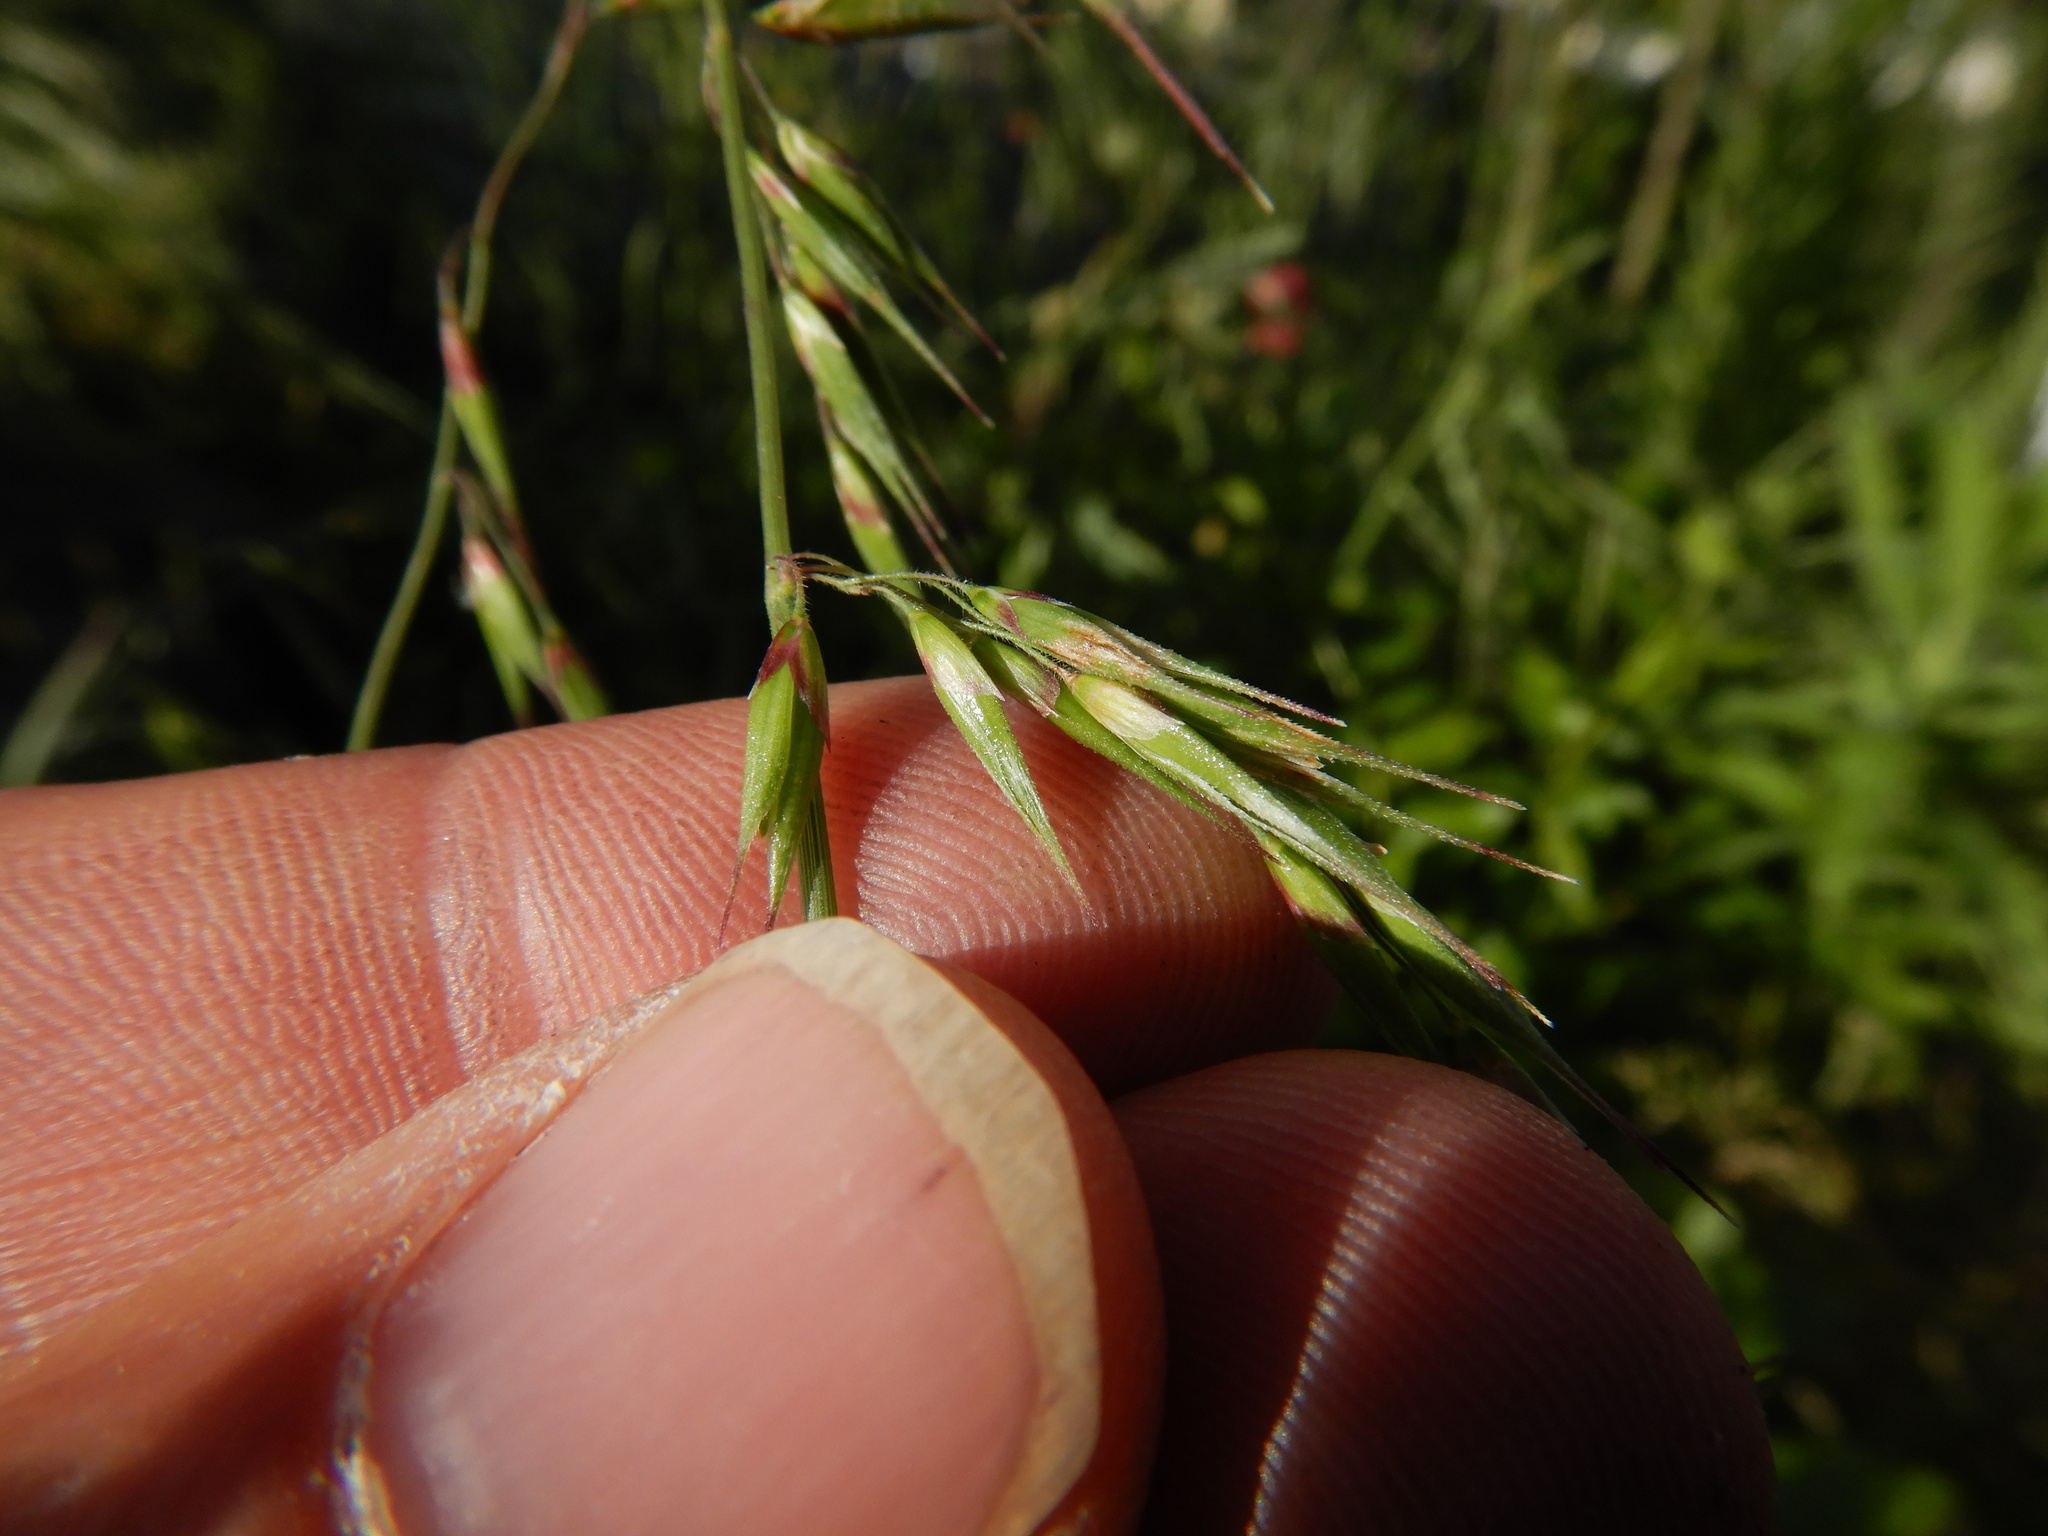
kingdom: Plantae
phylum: Tracheophyta
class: Liliopsida
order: Poales
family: Poaceae
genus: Ehrharta
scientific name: Ehrharta longiflora
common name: Longflowered veldtgrass
